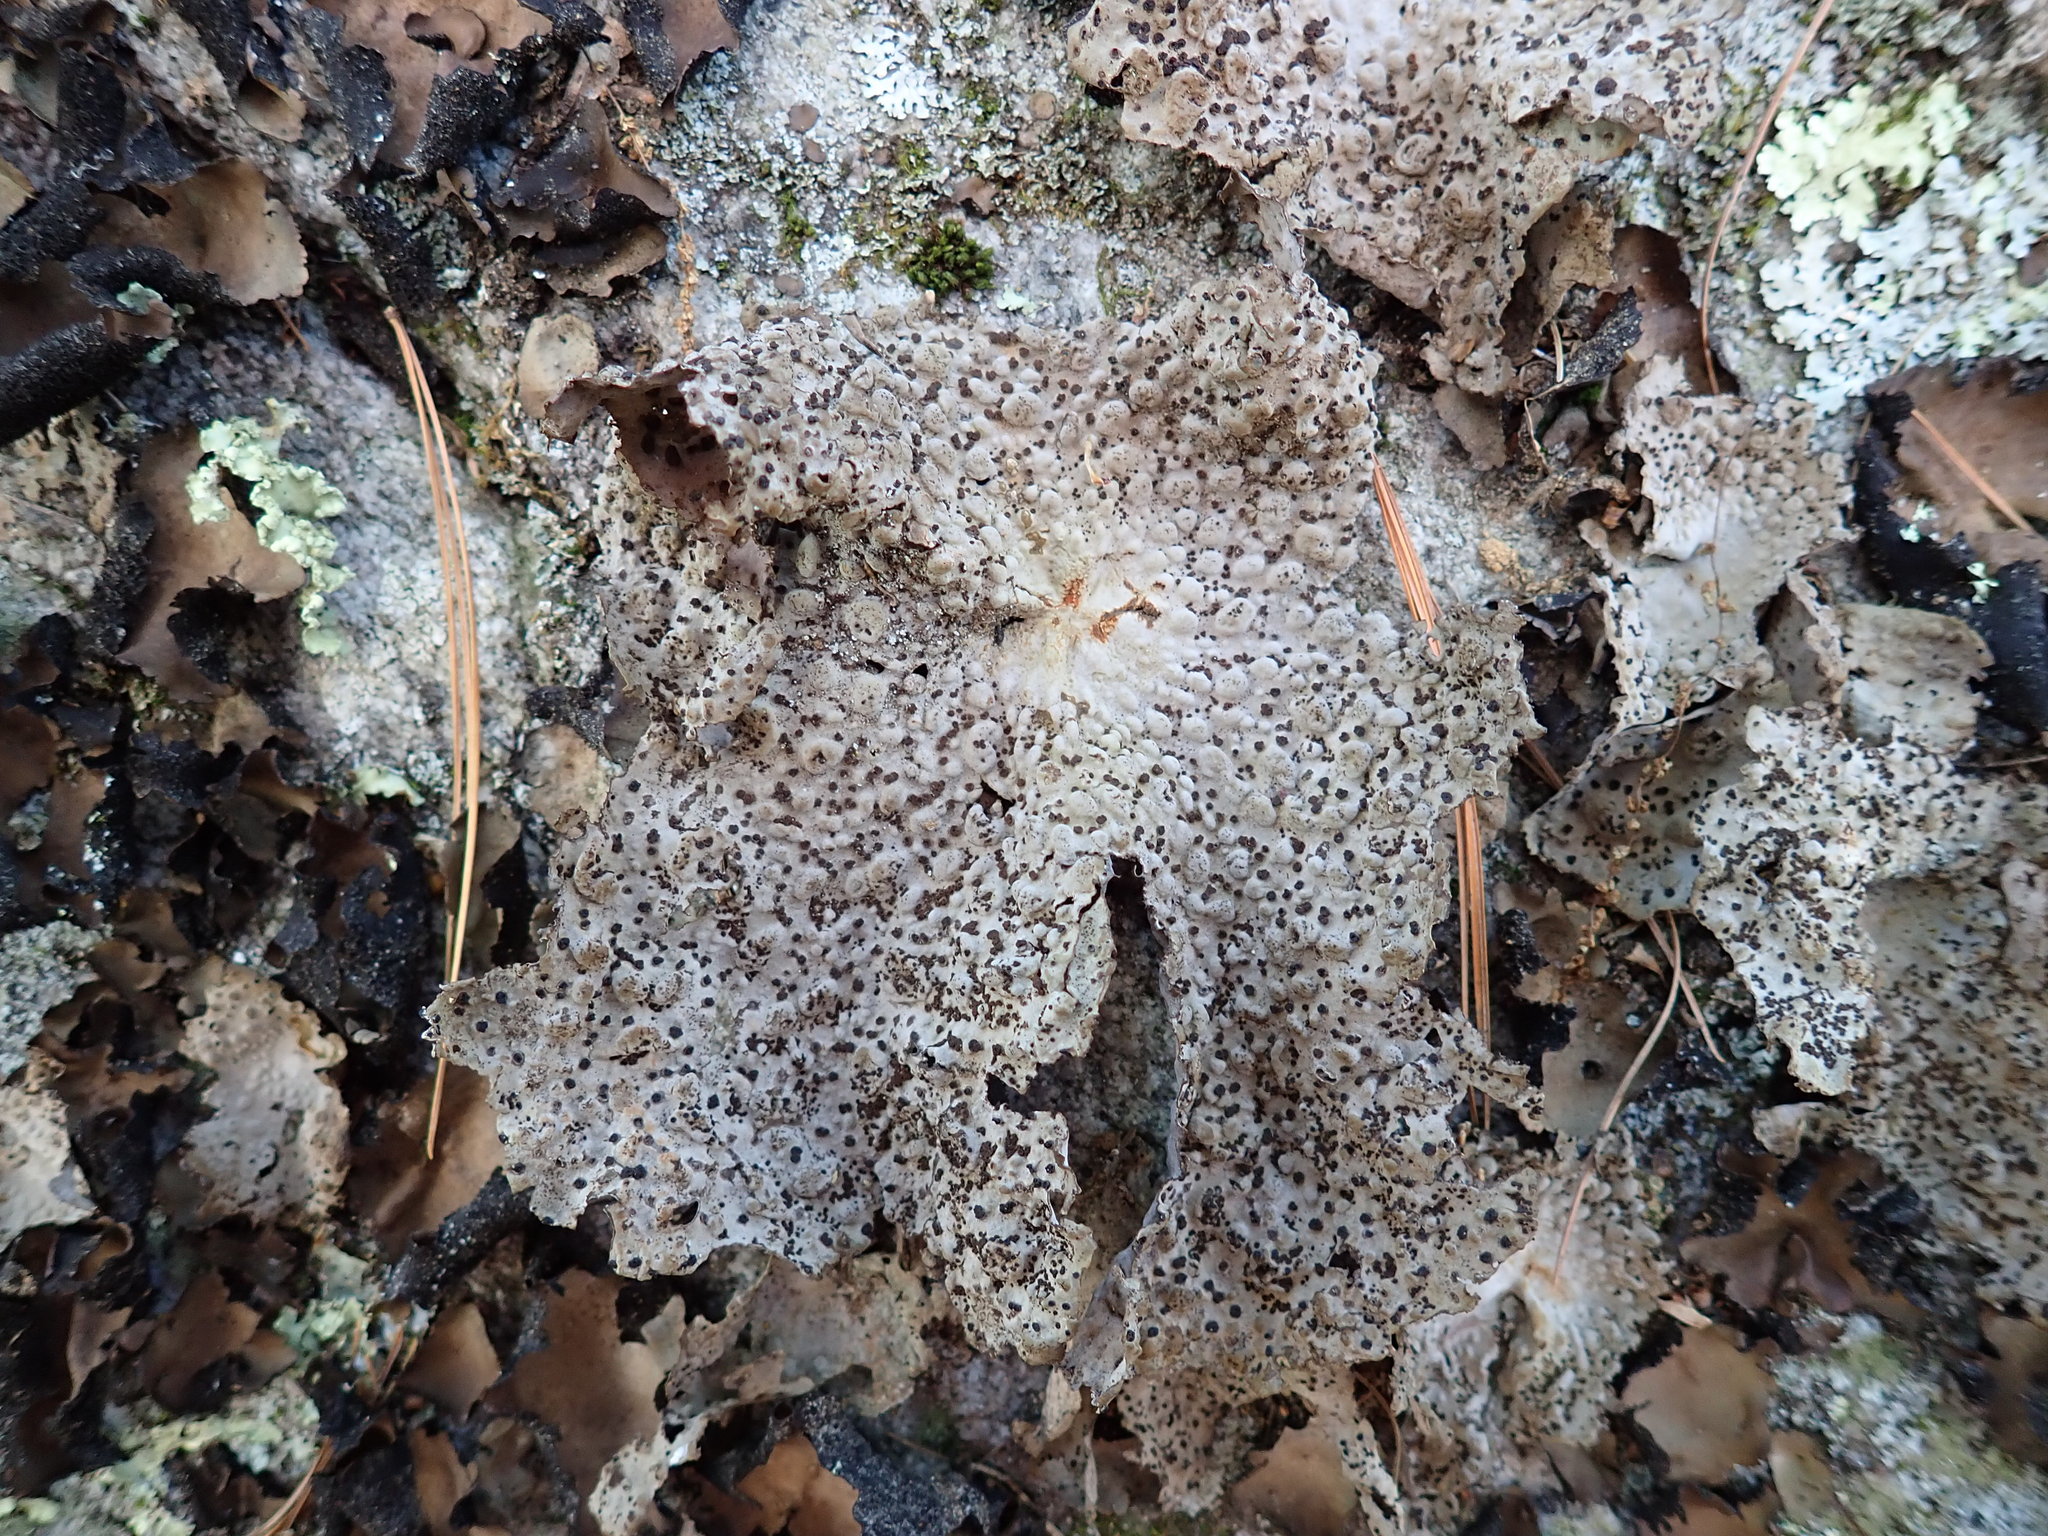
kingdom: Fungi
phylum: Ascomycota
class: Lecanoromycetes
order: Umbilicariales
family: Umbilicariaceae
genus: Lasallia
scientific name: Lasallia papulosa
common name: Common toadskin lichen
